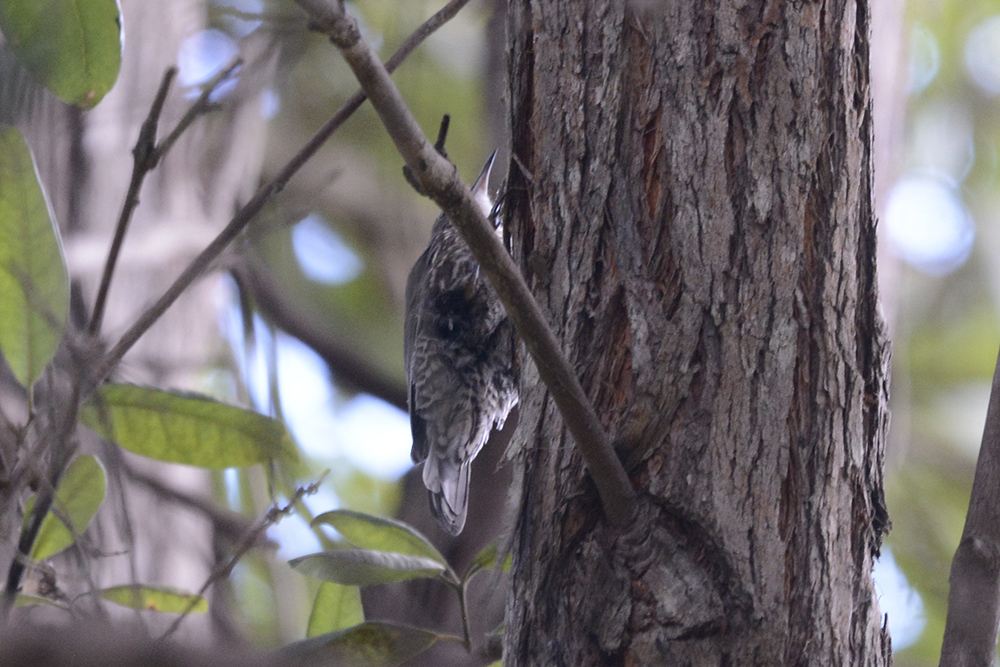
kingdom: Animalia
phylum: Chordata
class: Aves
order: Passeriformes
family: Climacteridae
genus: Cormobates
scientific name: Cormobates leucophaea
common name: White-throated treecreeper
